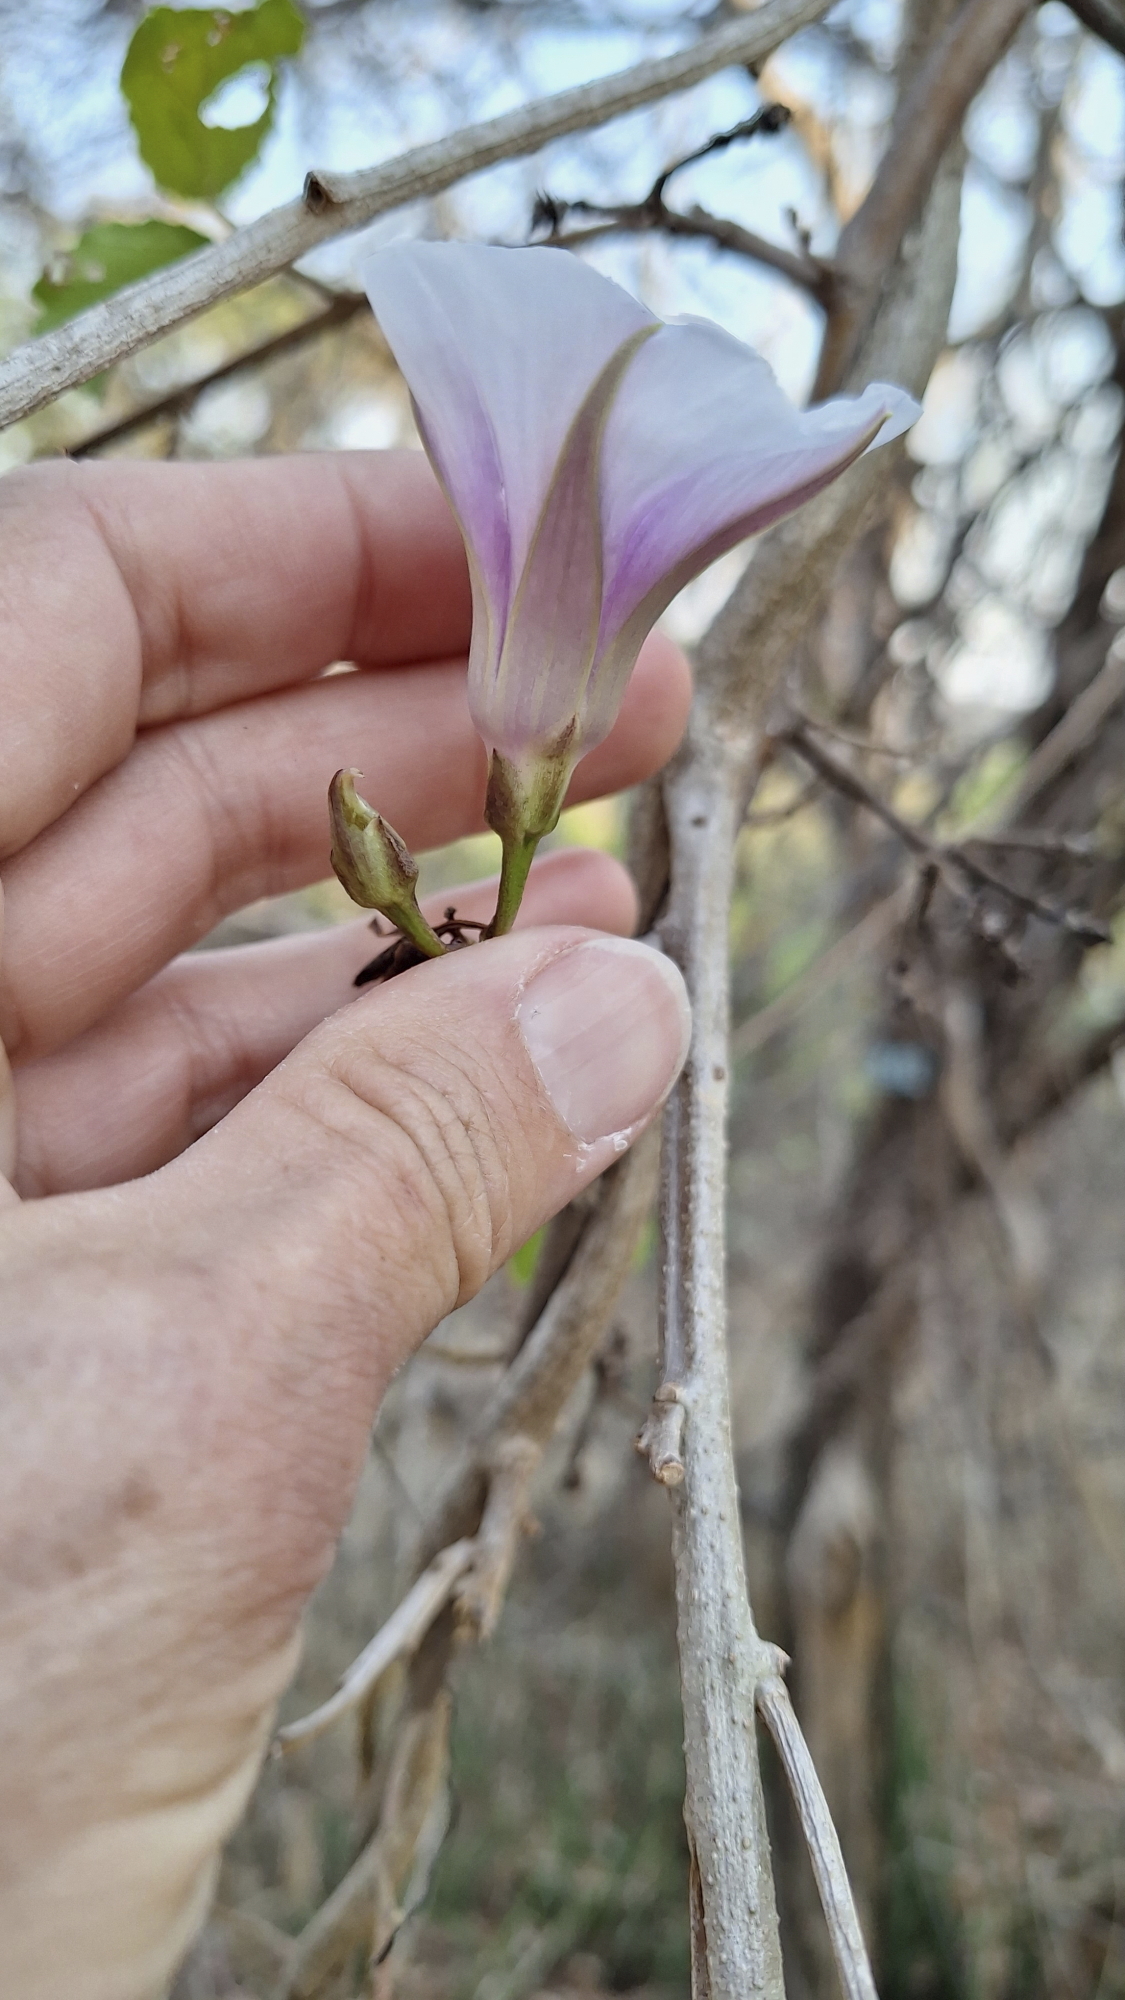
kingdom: Plantae
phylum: Tracheophyta
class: Magnoliopsida
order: Solanales
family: Convolvulaceae
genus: Ipomoea
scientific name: Ipomoea shirambensis
